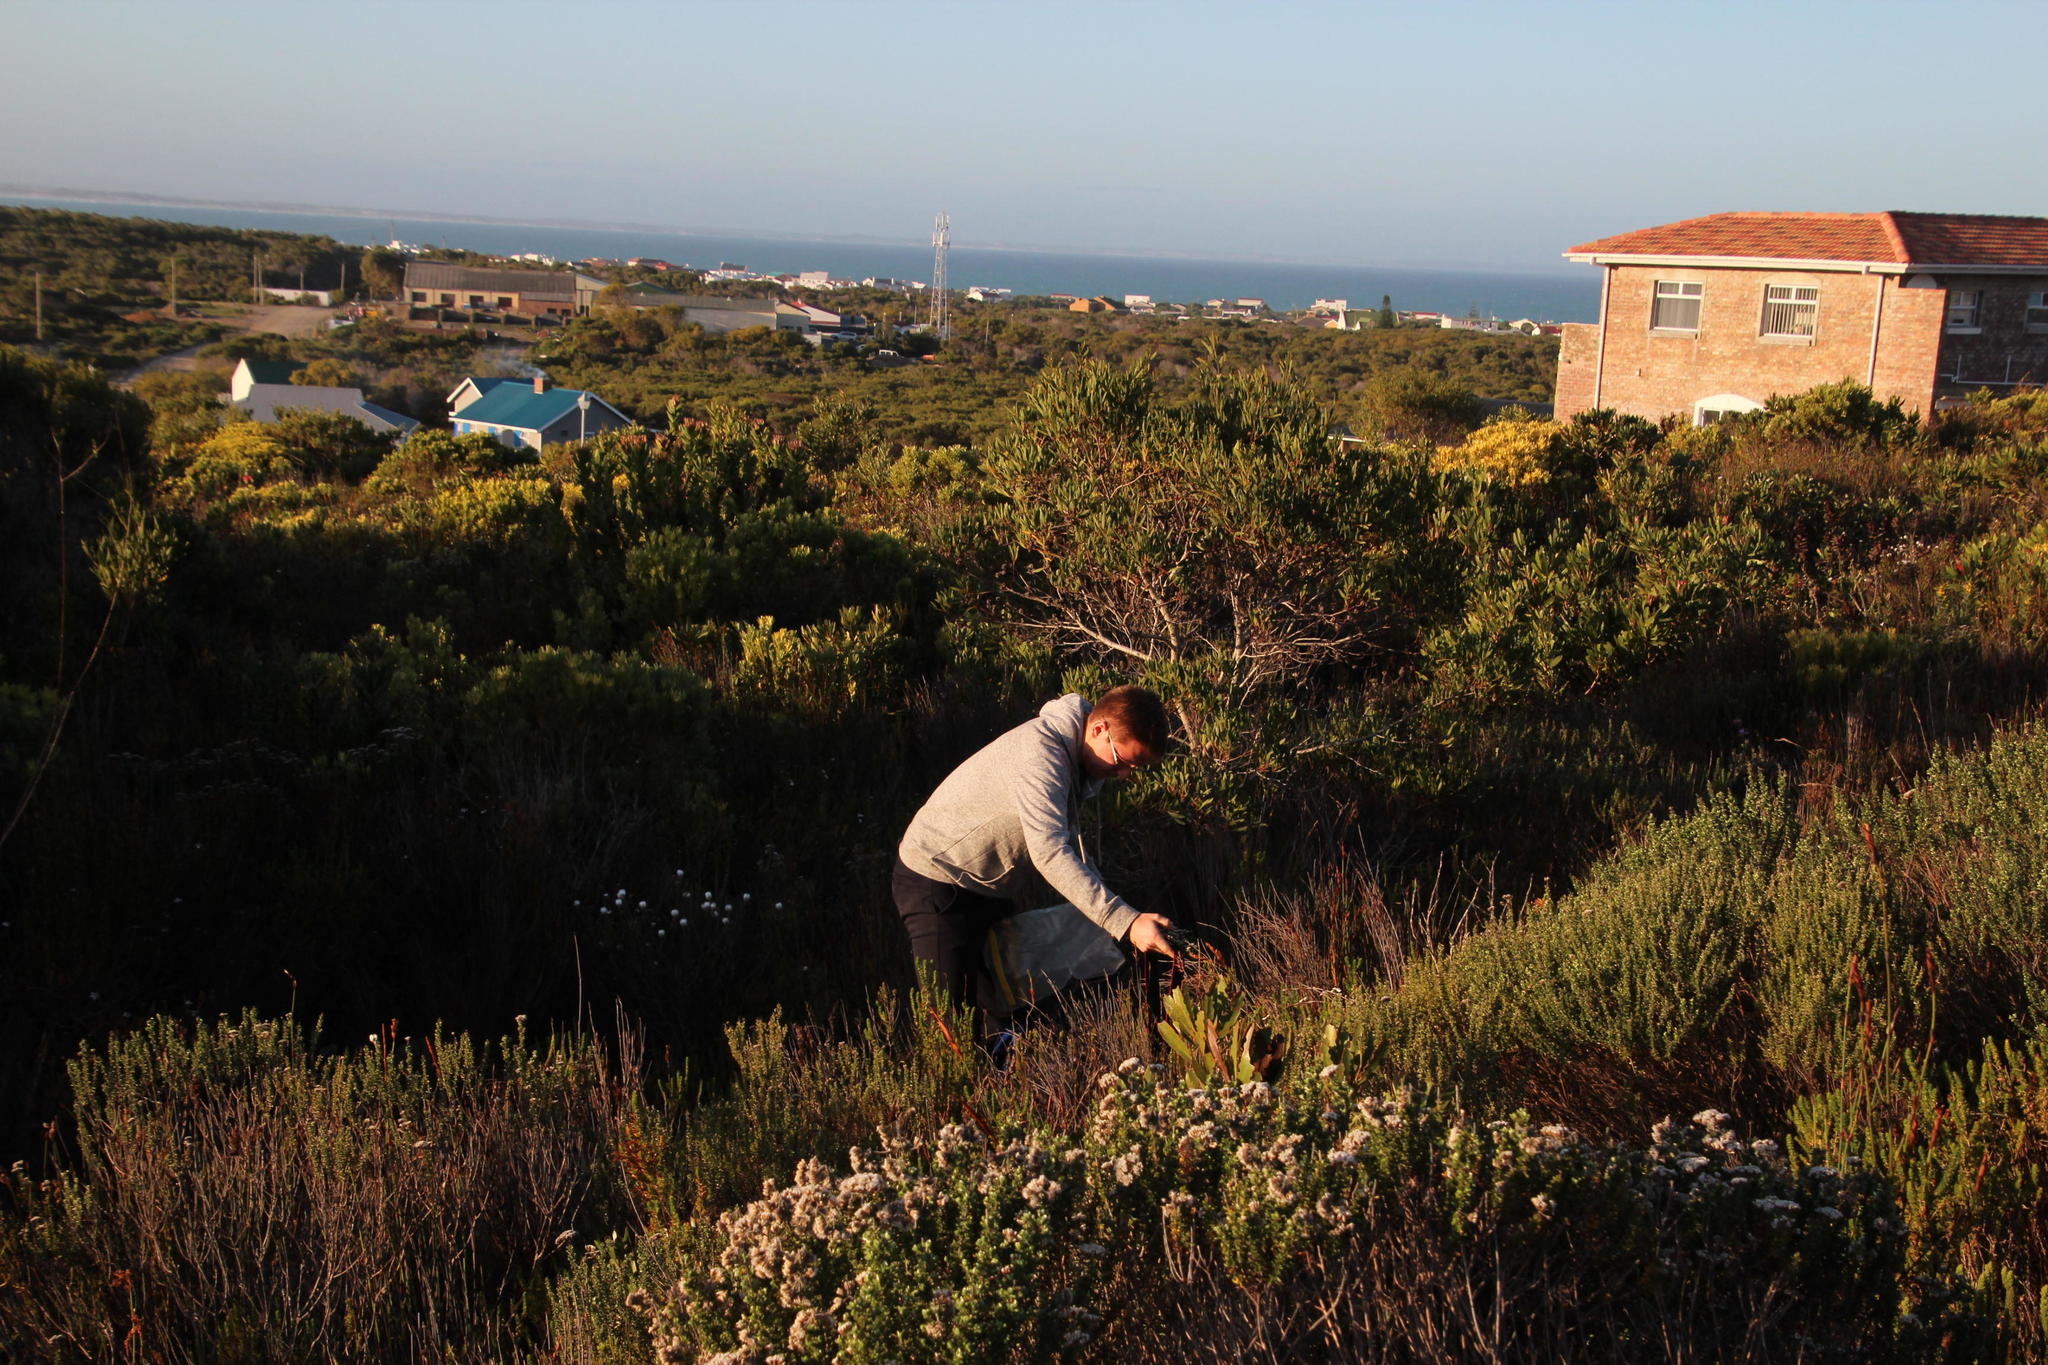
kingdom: Plantae
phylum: Tracheophyta
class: Magnoliopsida
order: Fabales
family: Fabaceae
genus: Acacia
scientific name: Acacia cyclops
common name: Coastal wattle
